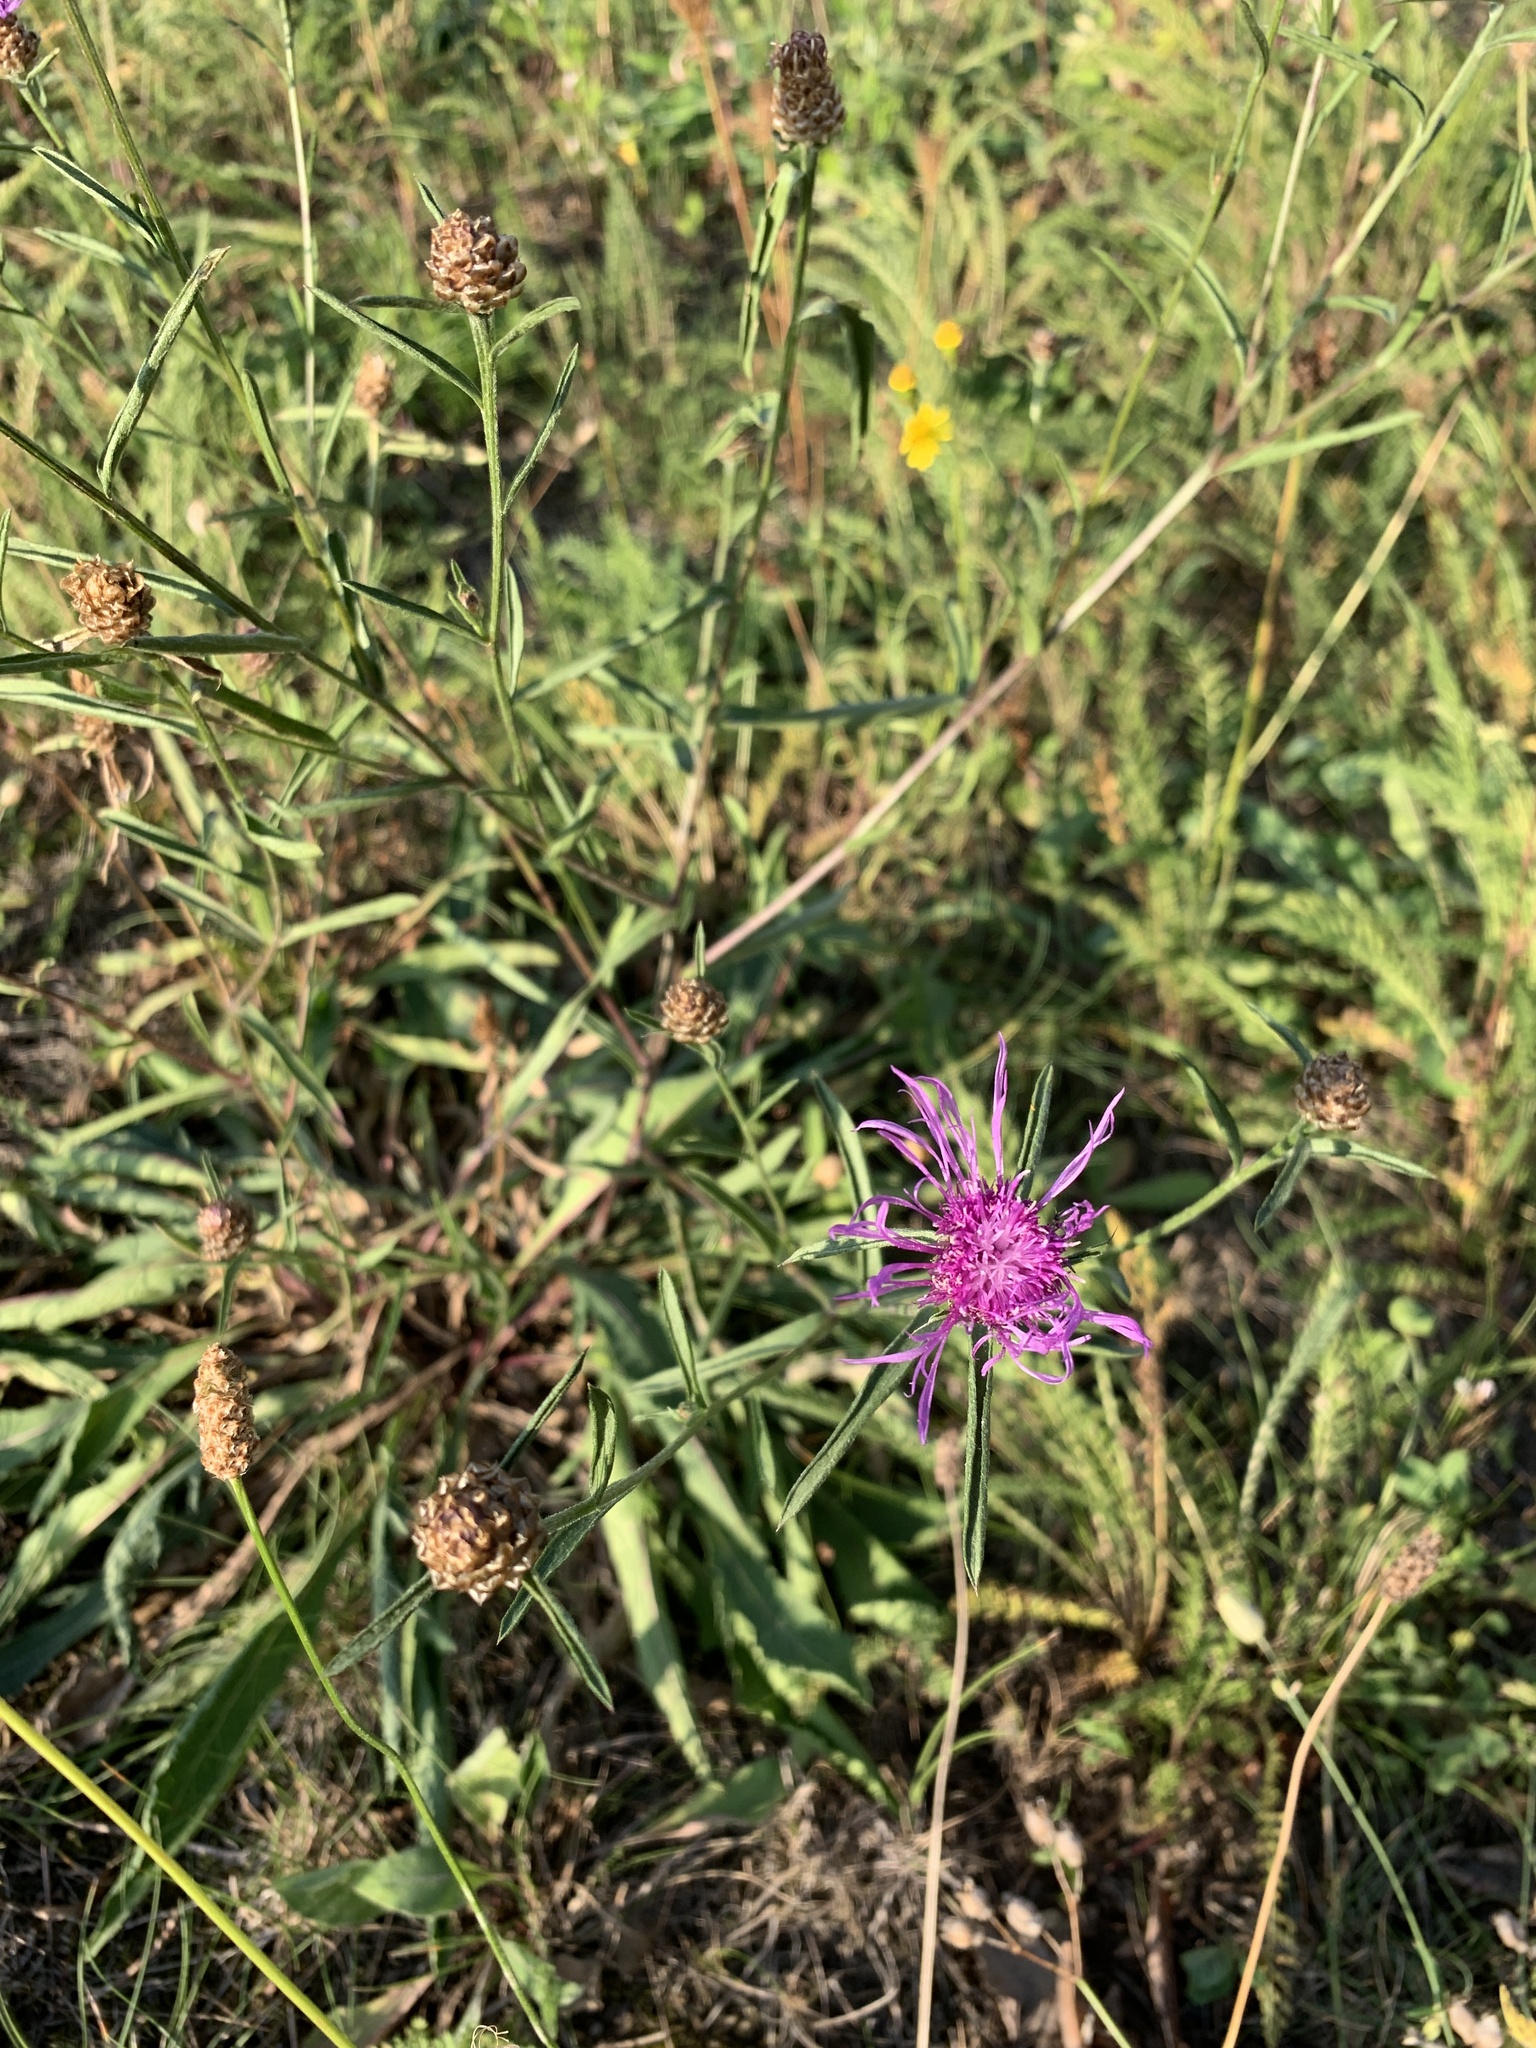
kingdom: Plantae
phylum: Tracheophyta
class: Magnoliopsida
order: Asterales
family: Asteraceae
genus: Centaurea
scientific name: Centaurea jacea
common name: Brown knapweed
